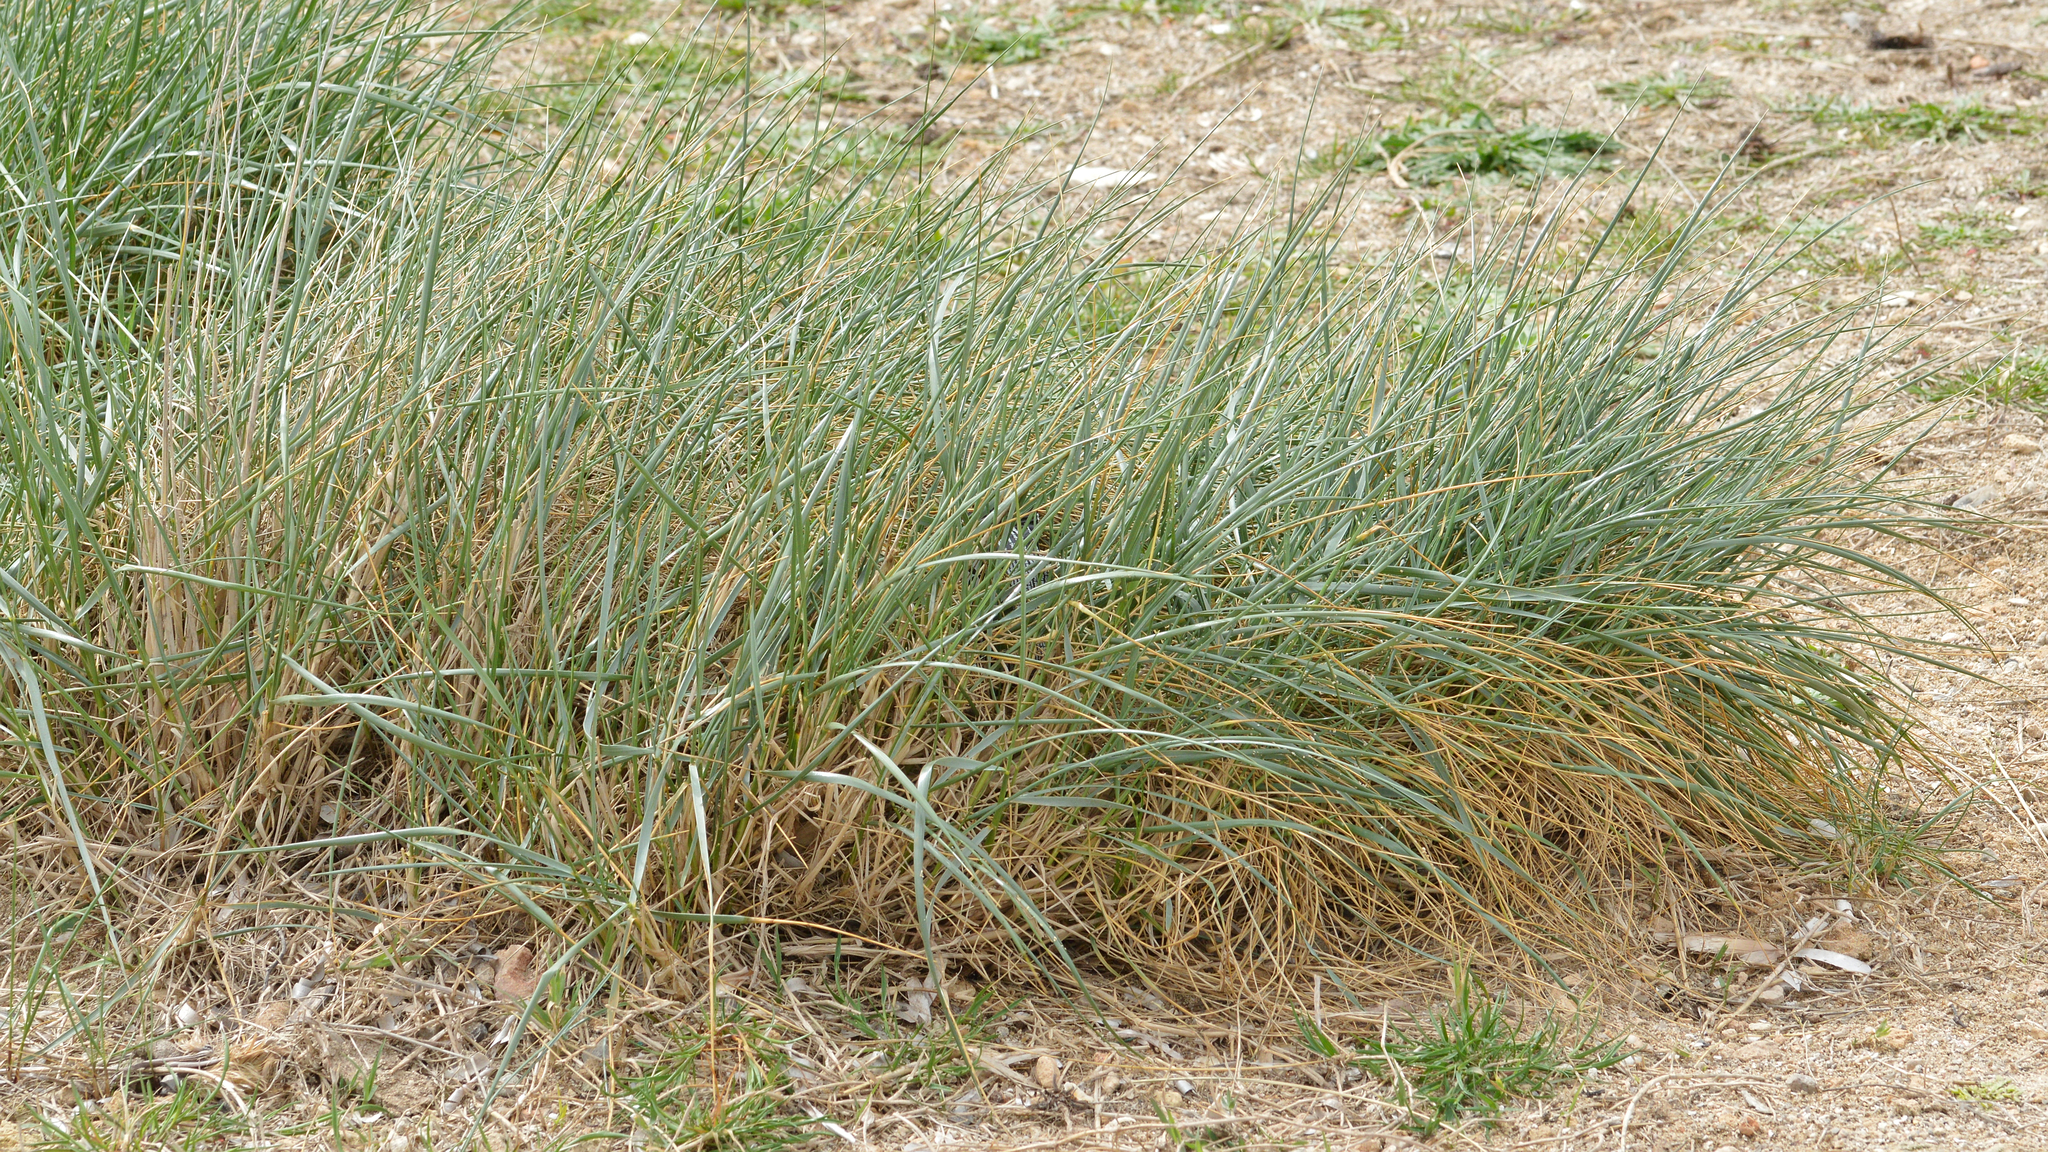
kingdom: Plantae
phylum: Tracheophyta
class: Liliopsida
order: Poales
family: Poaceae
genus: Thinopyrum
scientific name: Thinopyrum junceum
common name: Russian wheatgrass
